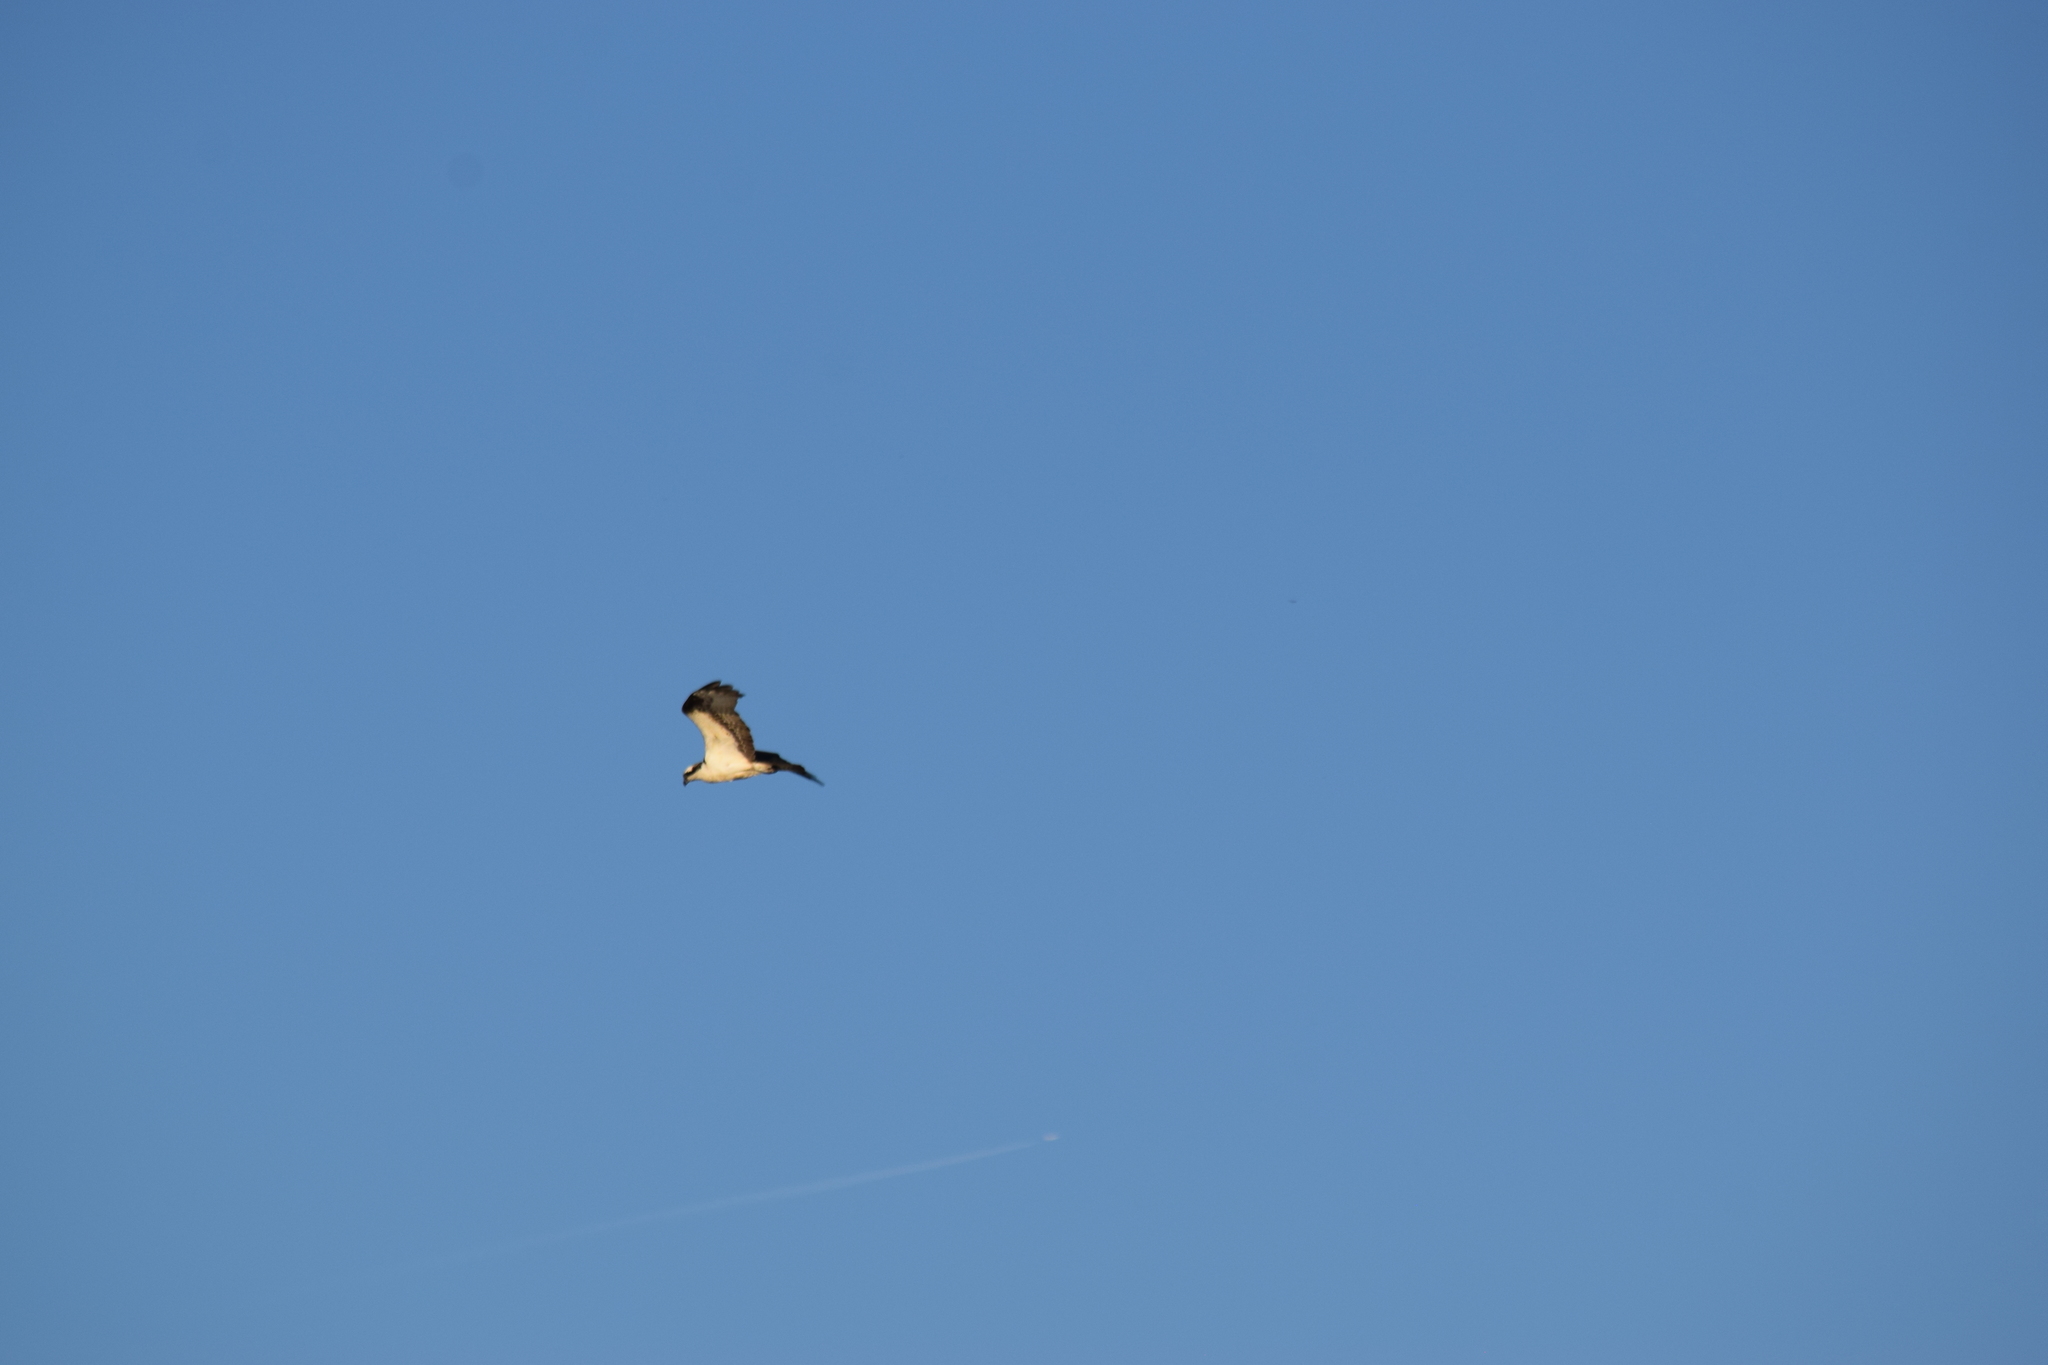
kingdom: Animalia
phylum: Chordata
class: Aves
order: Accipitriformes
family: Pandionidae
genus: Pandion
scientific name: Pandion haliaetus
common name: Osprey
